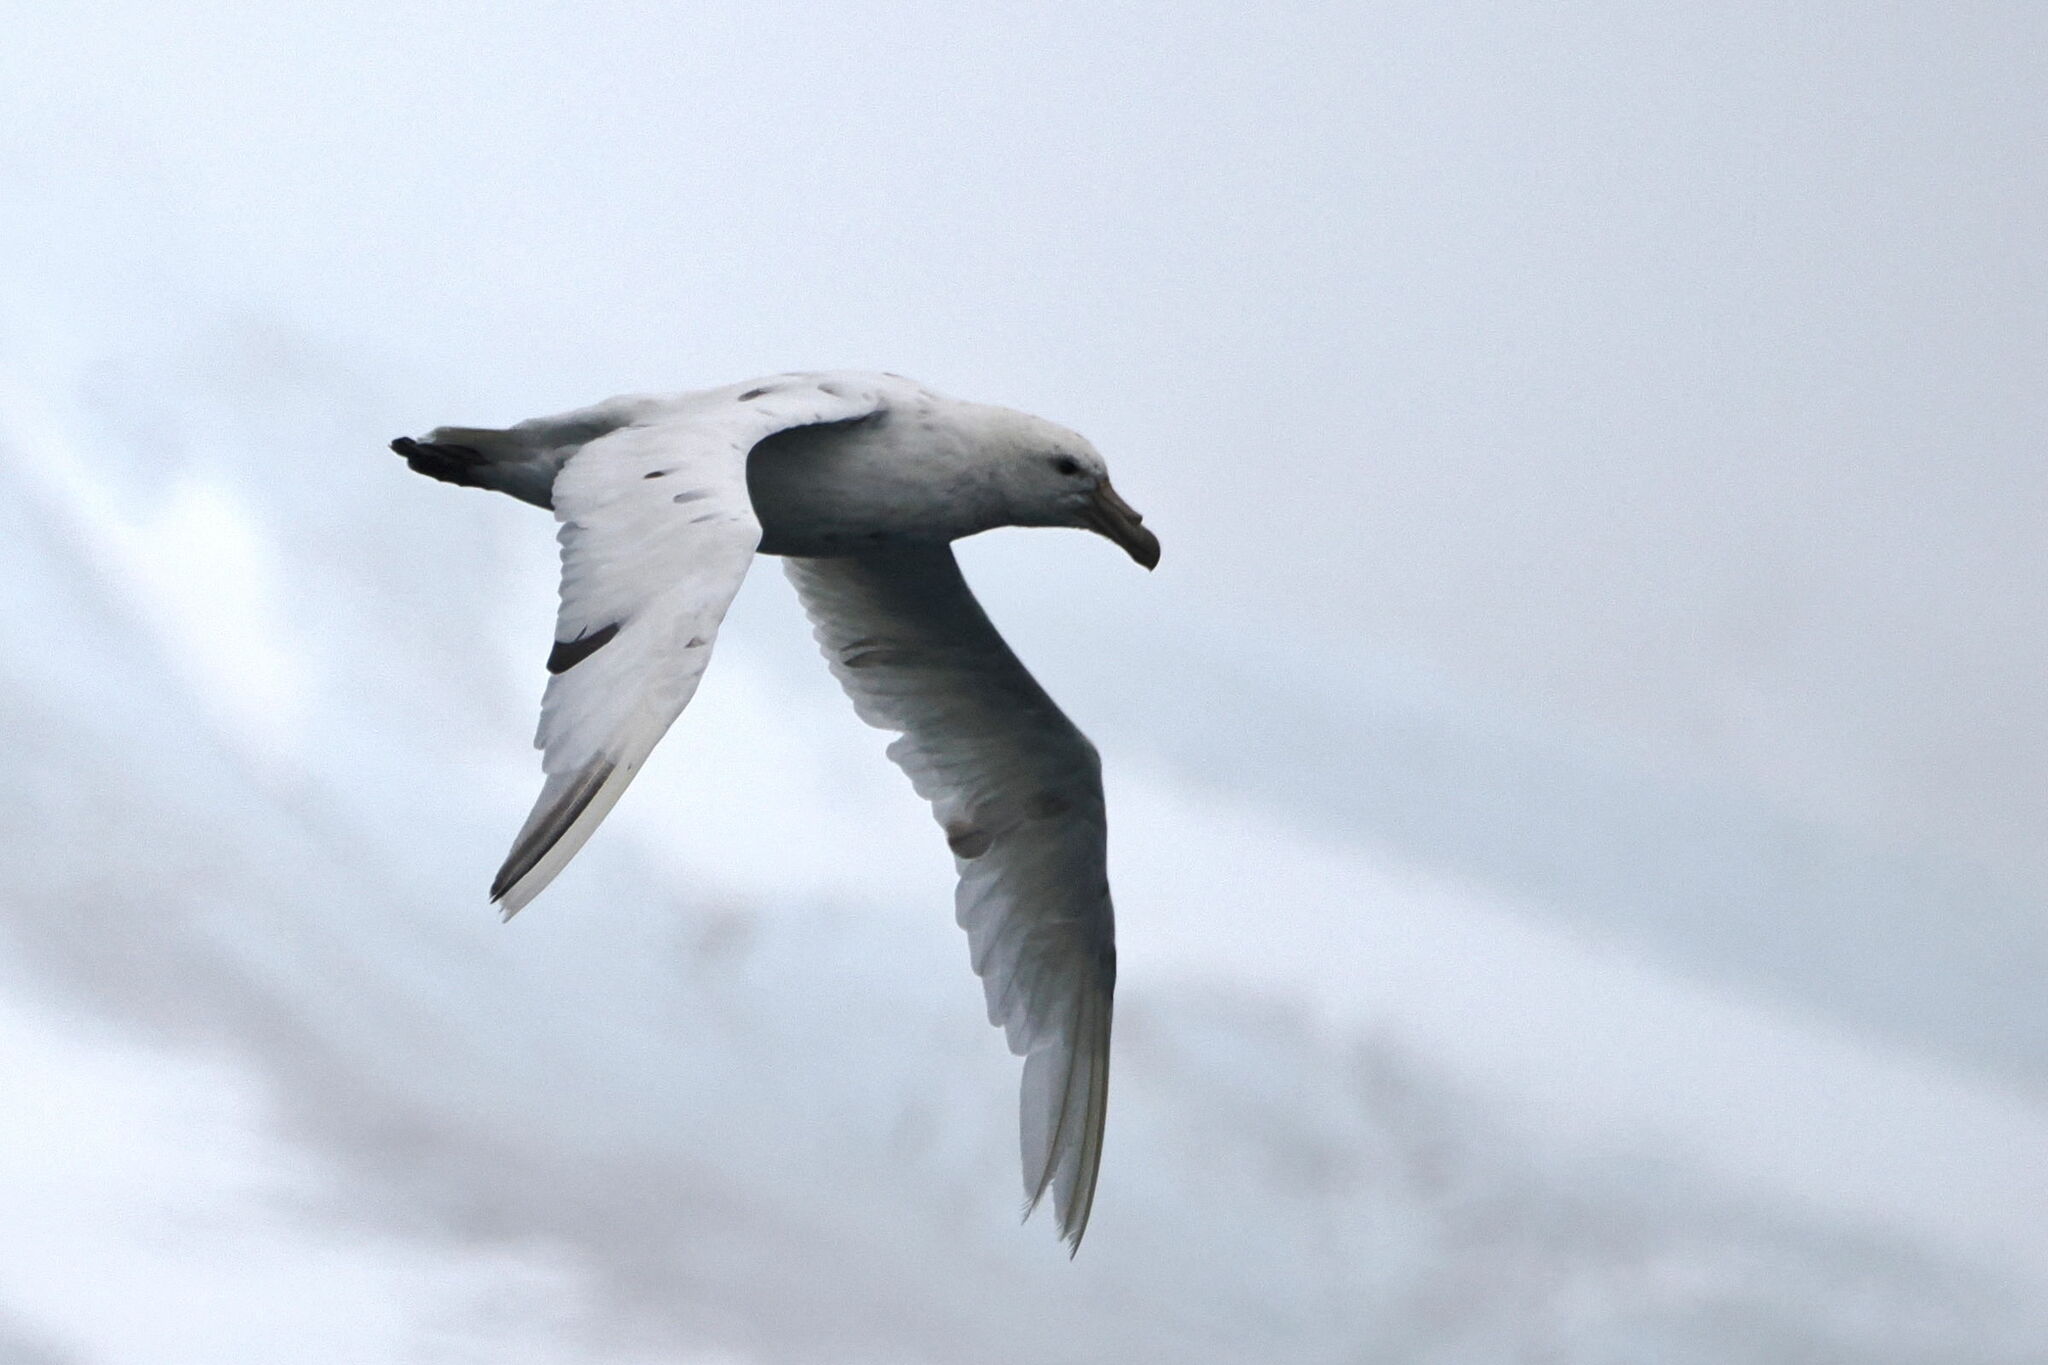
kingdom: Animalia
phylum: Chordata
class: Aves
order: Procellariiformes
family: Procellariidae
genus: Macronectes
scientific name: Macronectes giganteus
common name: Southern giant petrel
